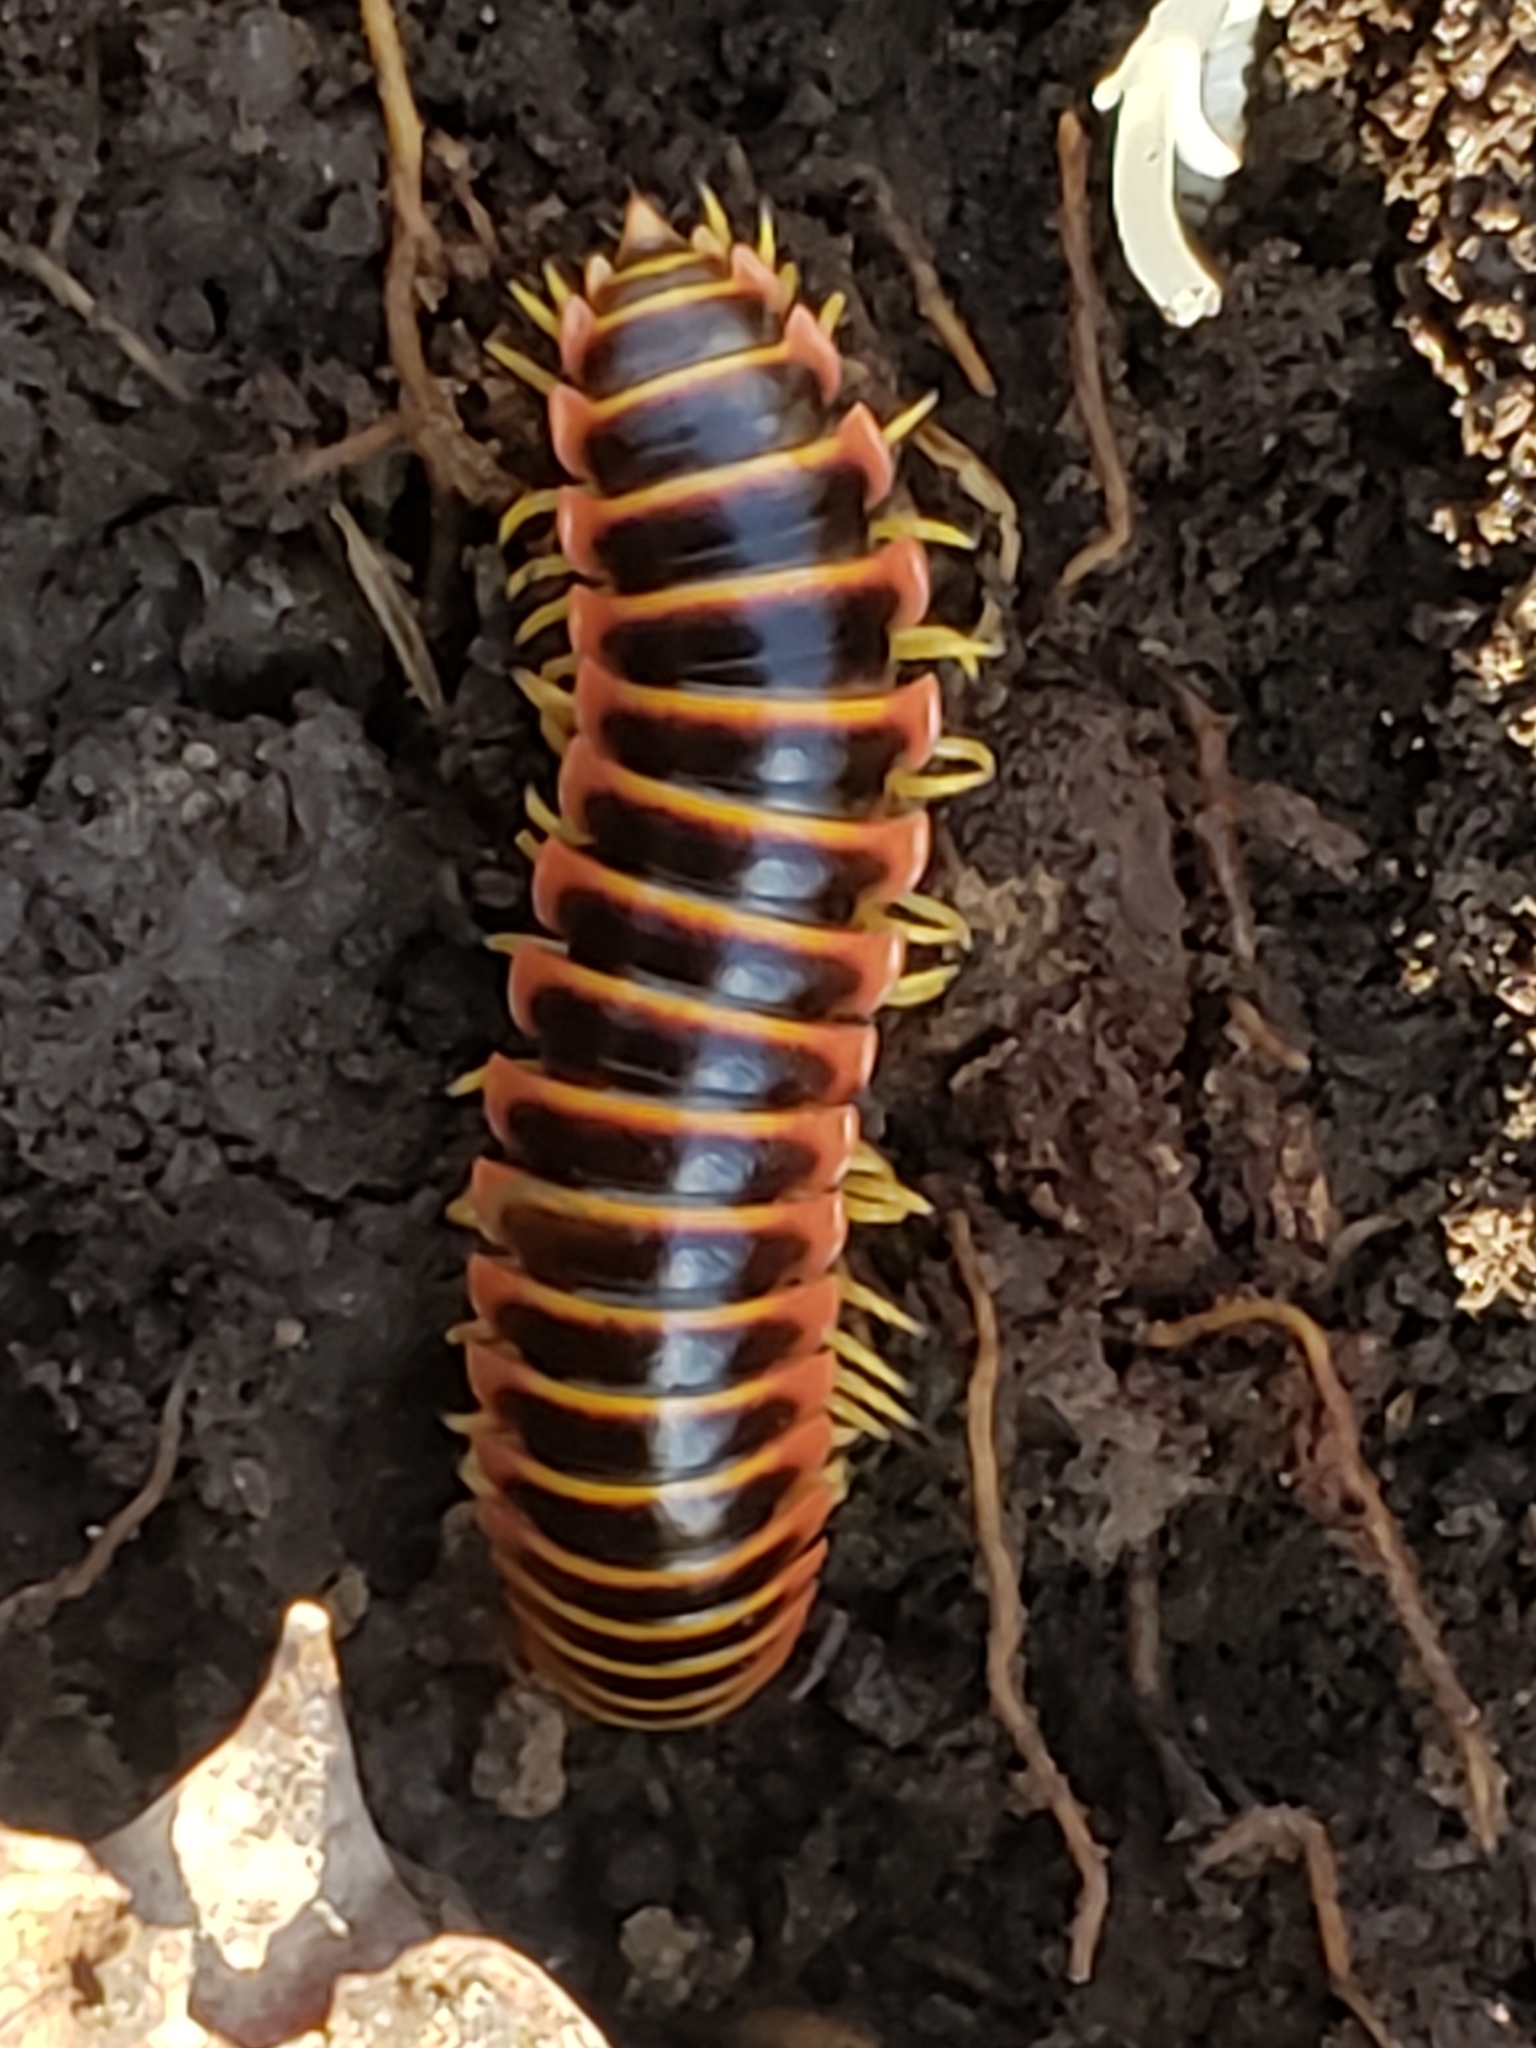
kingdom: Animalia
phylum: Arthropoda
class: Diplopoda
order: Polydesmida
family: Xystodesmidae
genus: Apheloria
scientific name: Apheloria virginiensis
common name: Black-and-gold flat millipede
